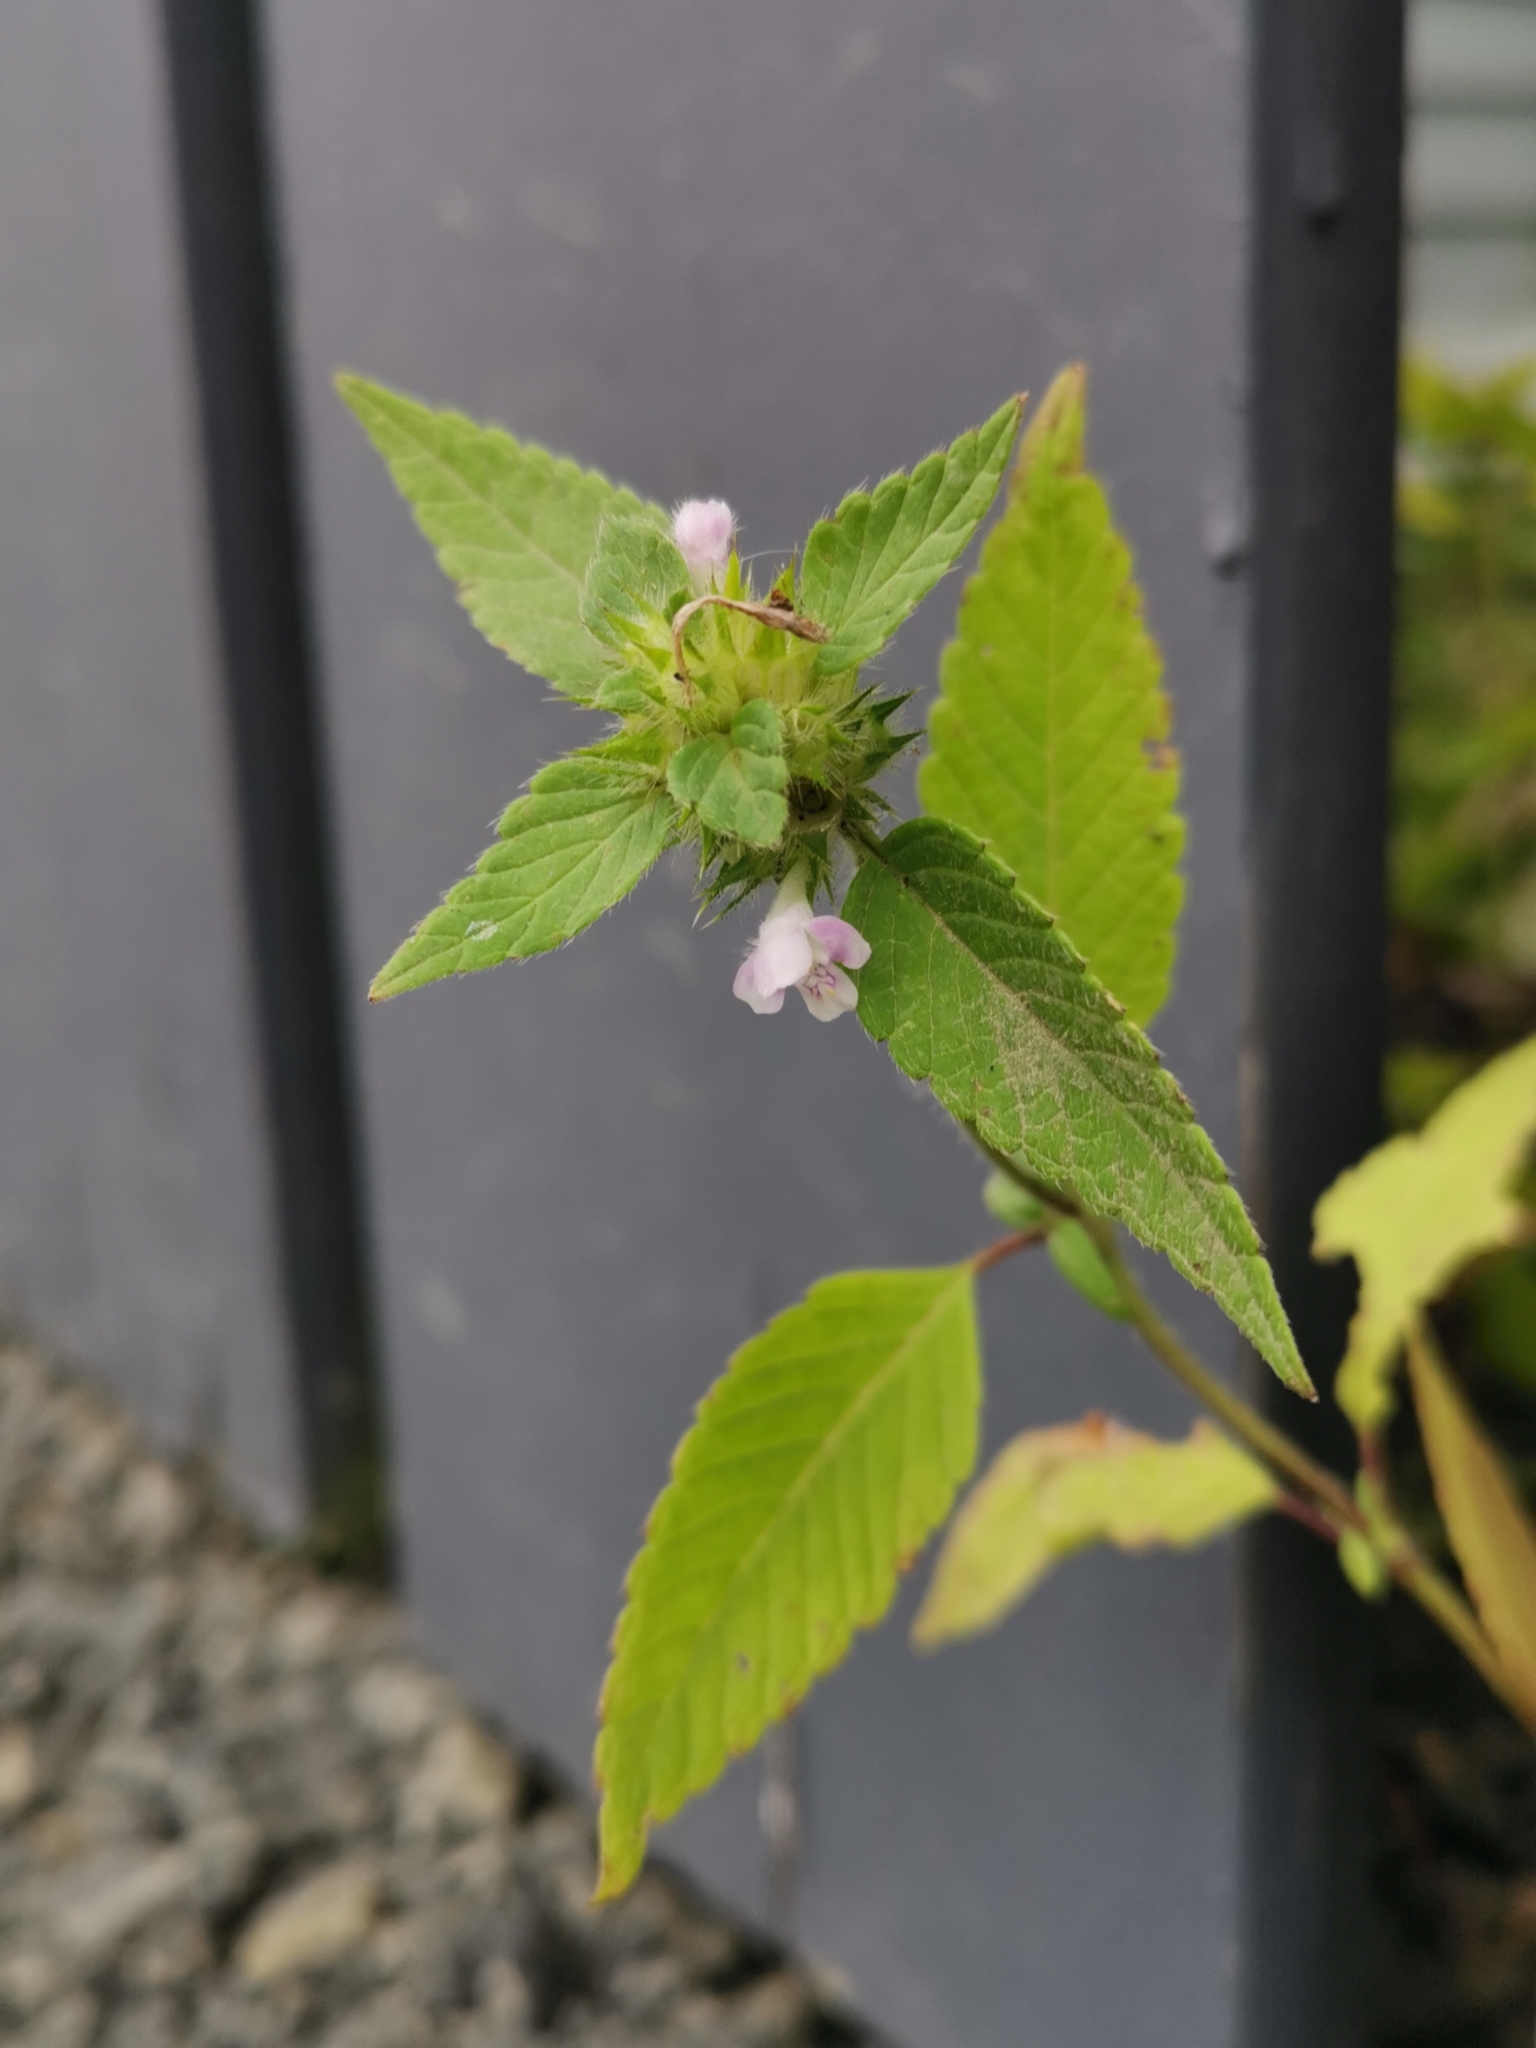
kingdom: Plantae
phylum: Tracheophyta
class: Magnoliopsida
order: Lamiales
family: Lamiaceae
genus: Galeopsis
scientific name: Galeopsis tetrahit
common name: Common hemp-nettle
